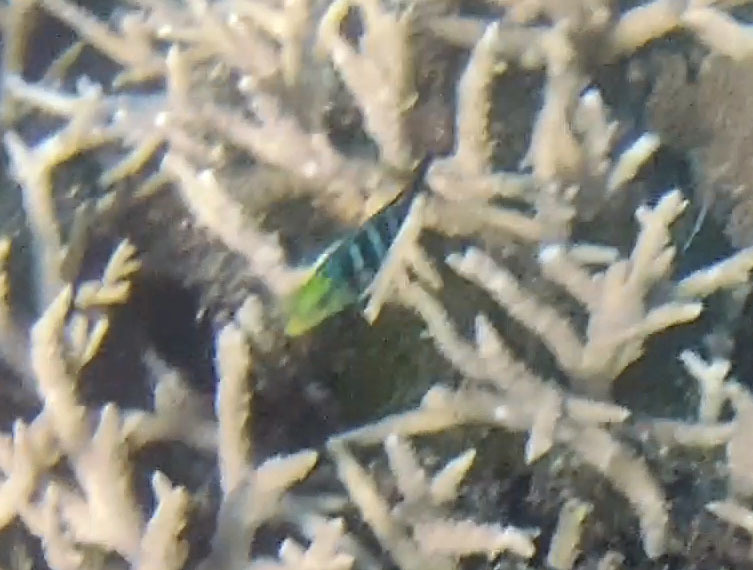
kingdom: Animalia
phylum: Chordata
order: Perciformes
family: Labridae
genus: Hemigymnus
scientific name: Hemigymnus fasciatus
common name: Barred thicklip
